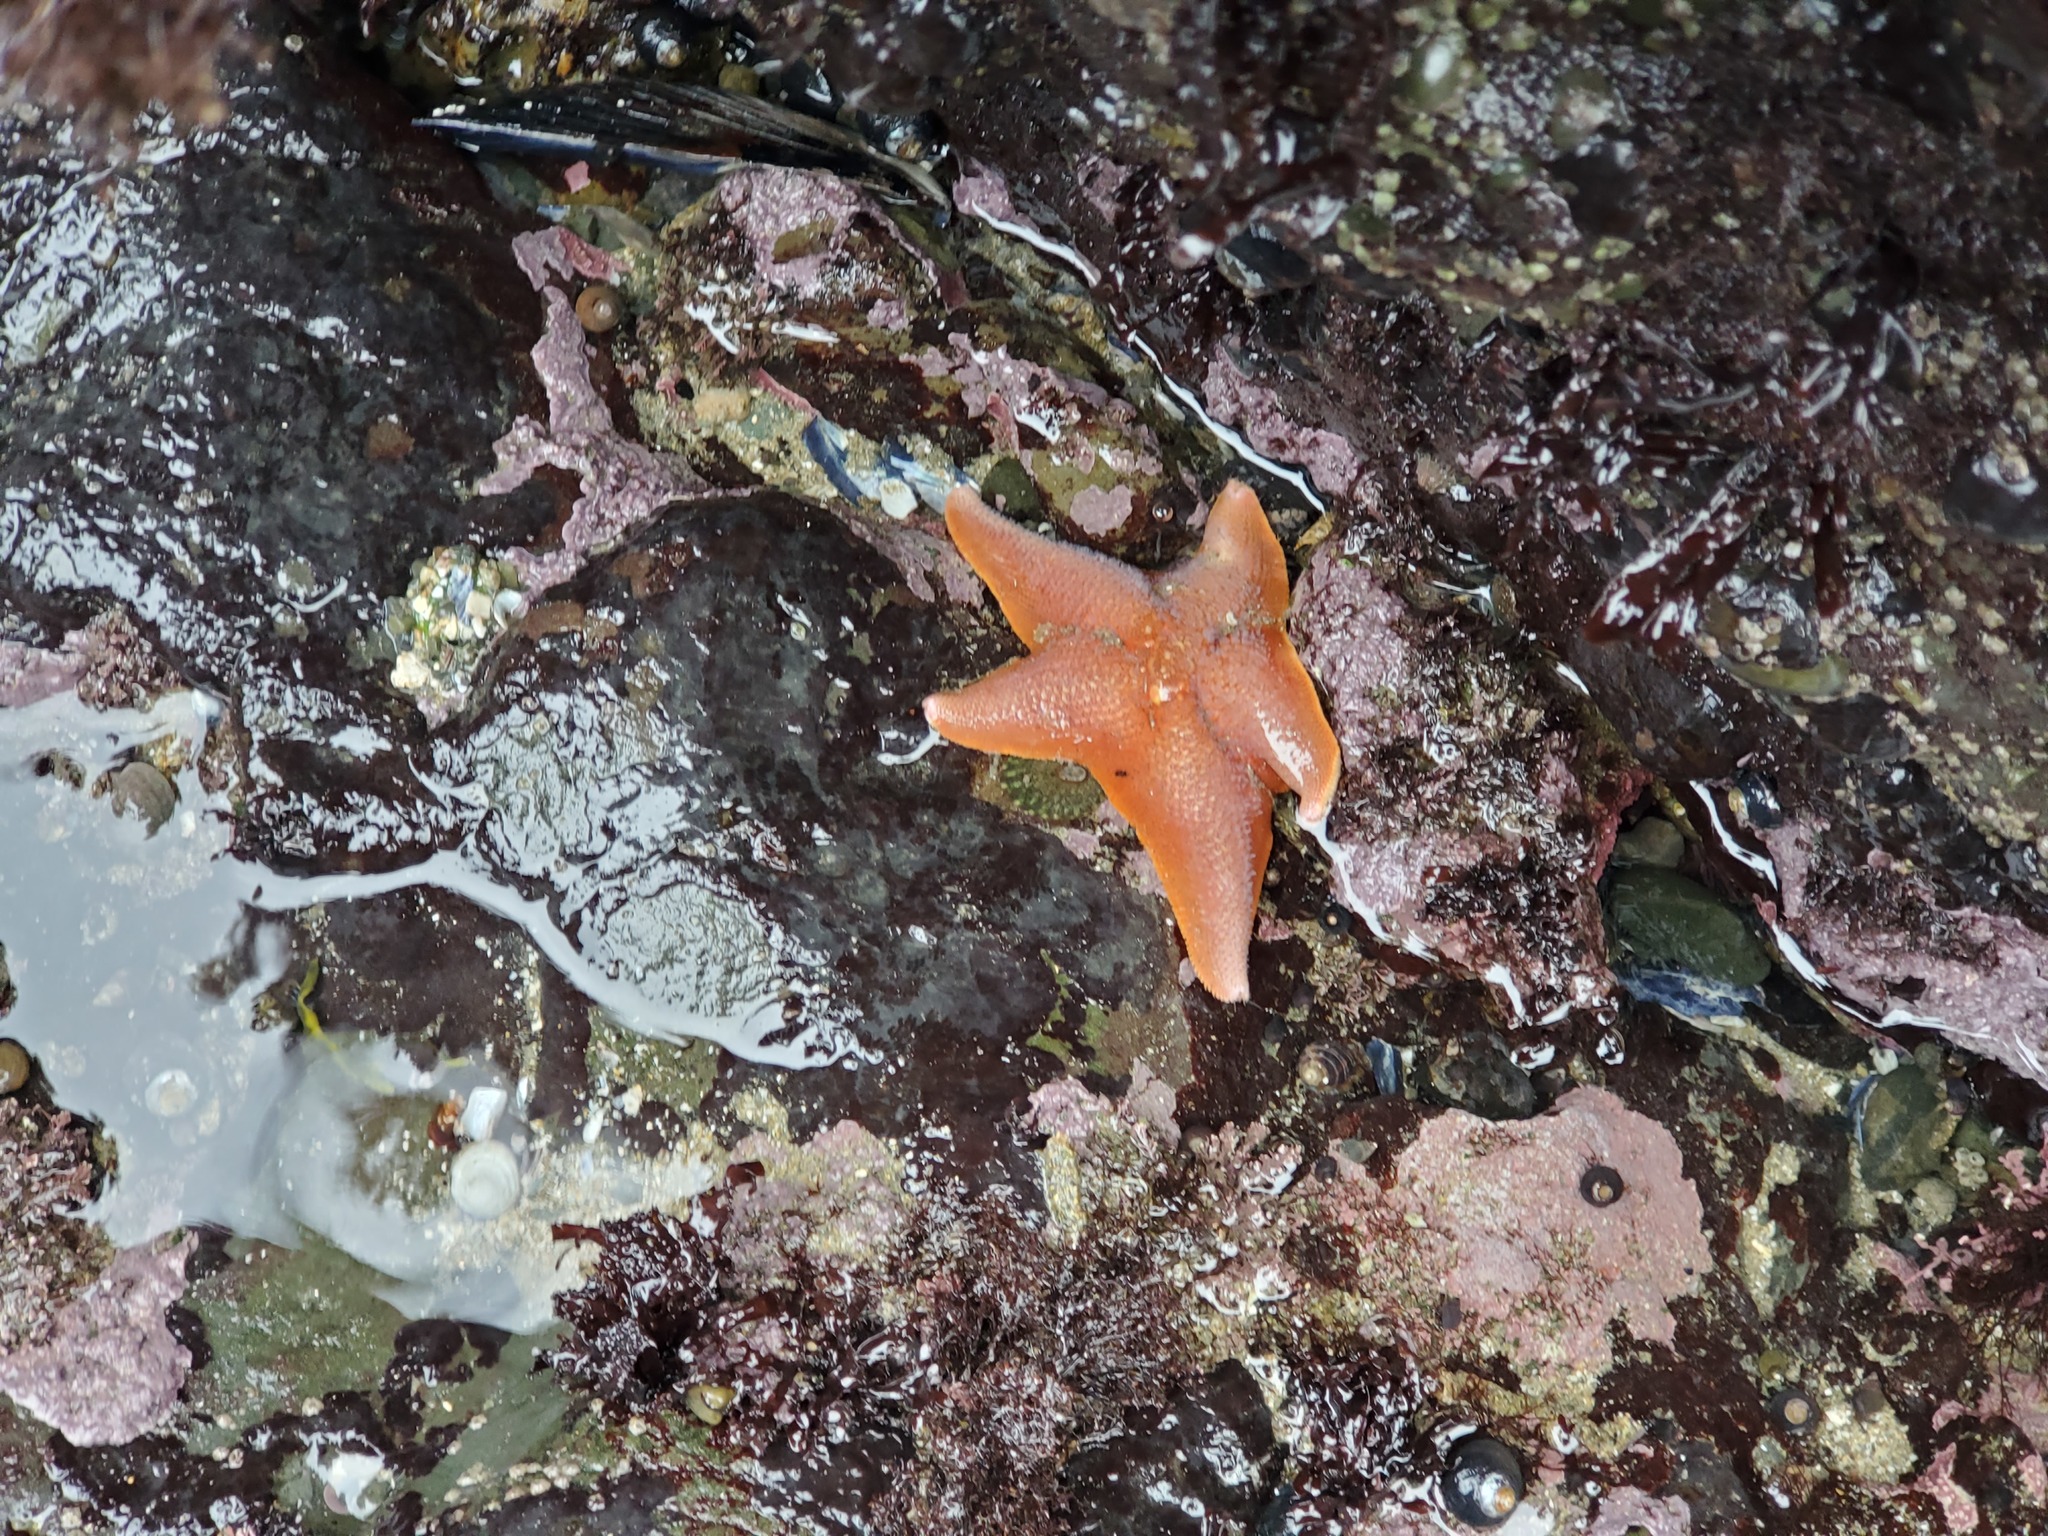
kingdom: Animalia
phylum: Echinodermata
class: Asteroidea
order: Valvatida
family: Asterinidae
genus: Patiria
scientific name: Patiria miniata
